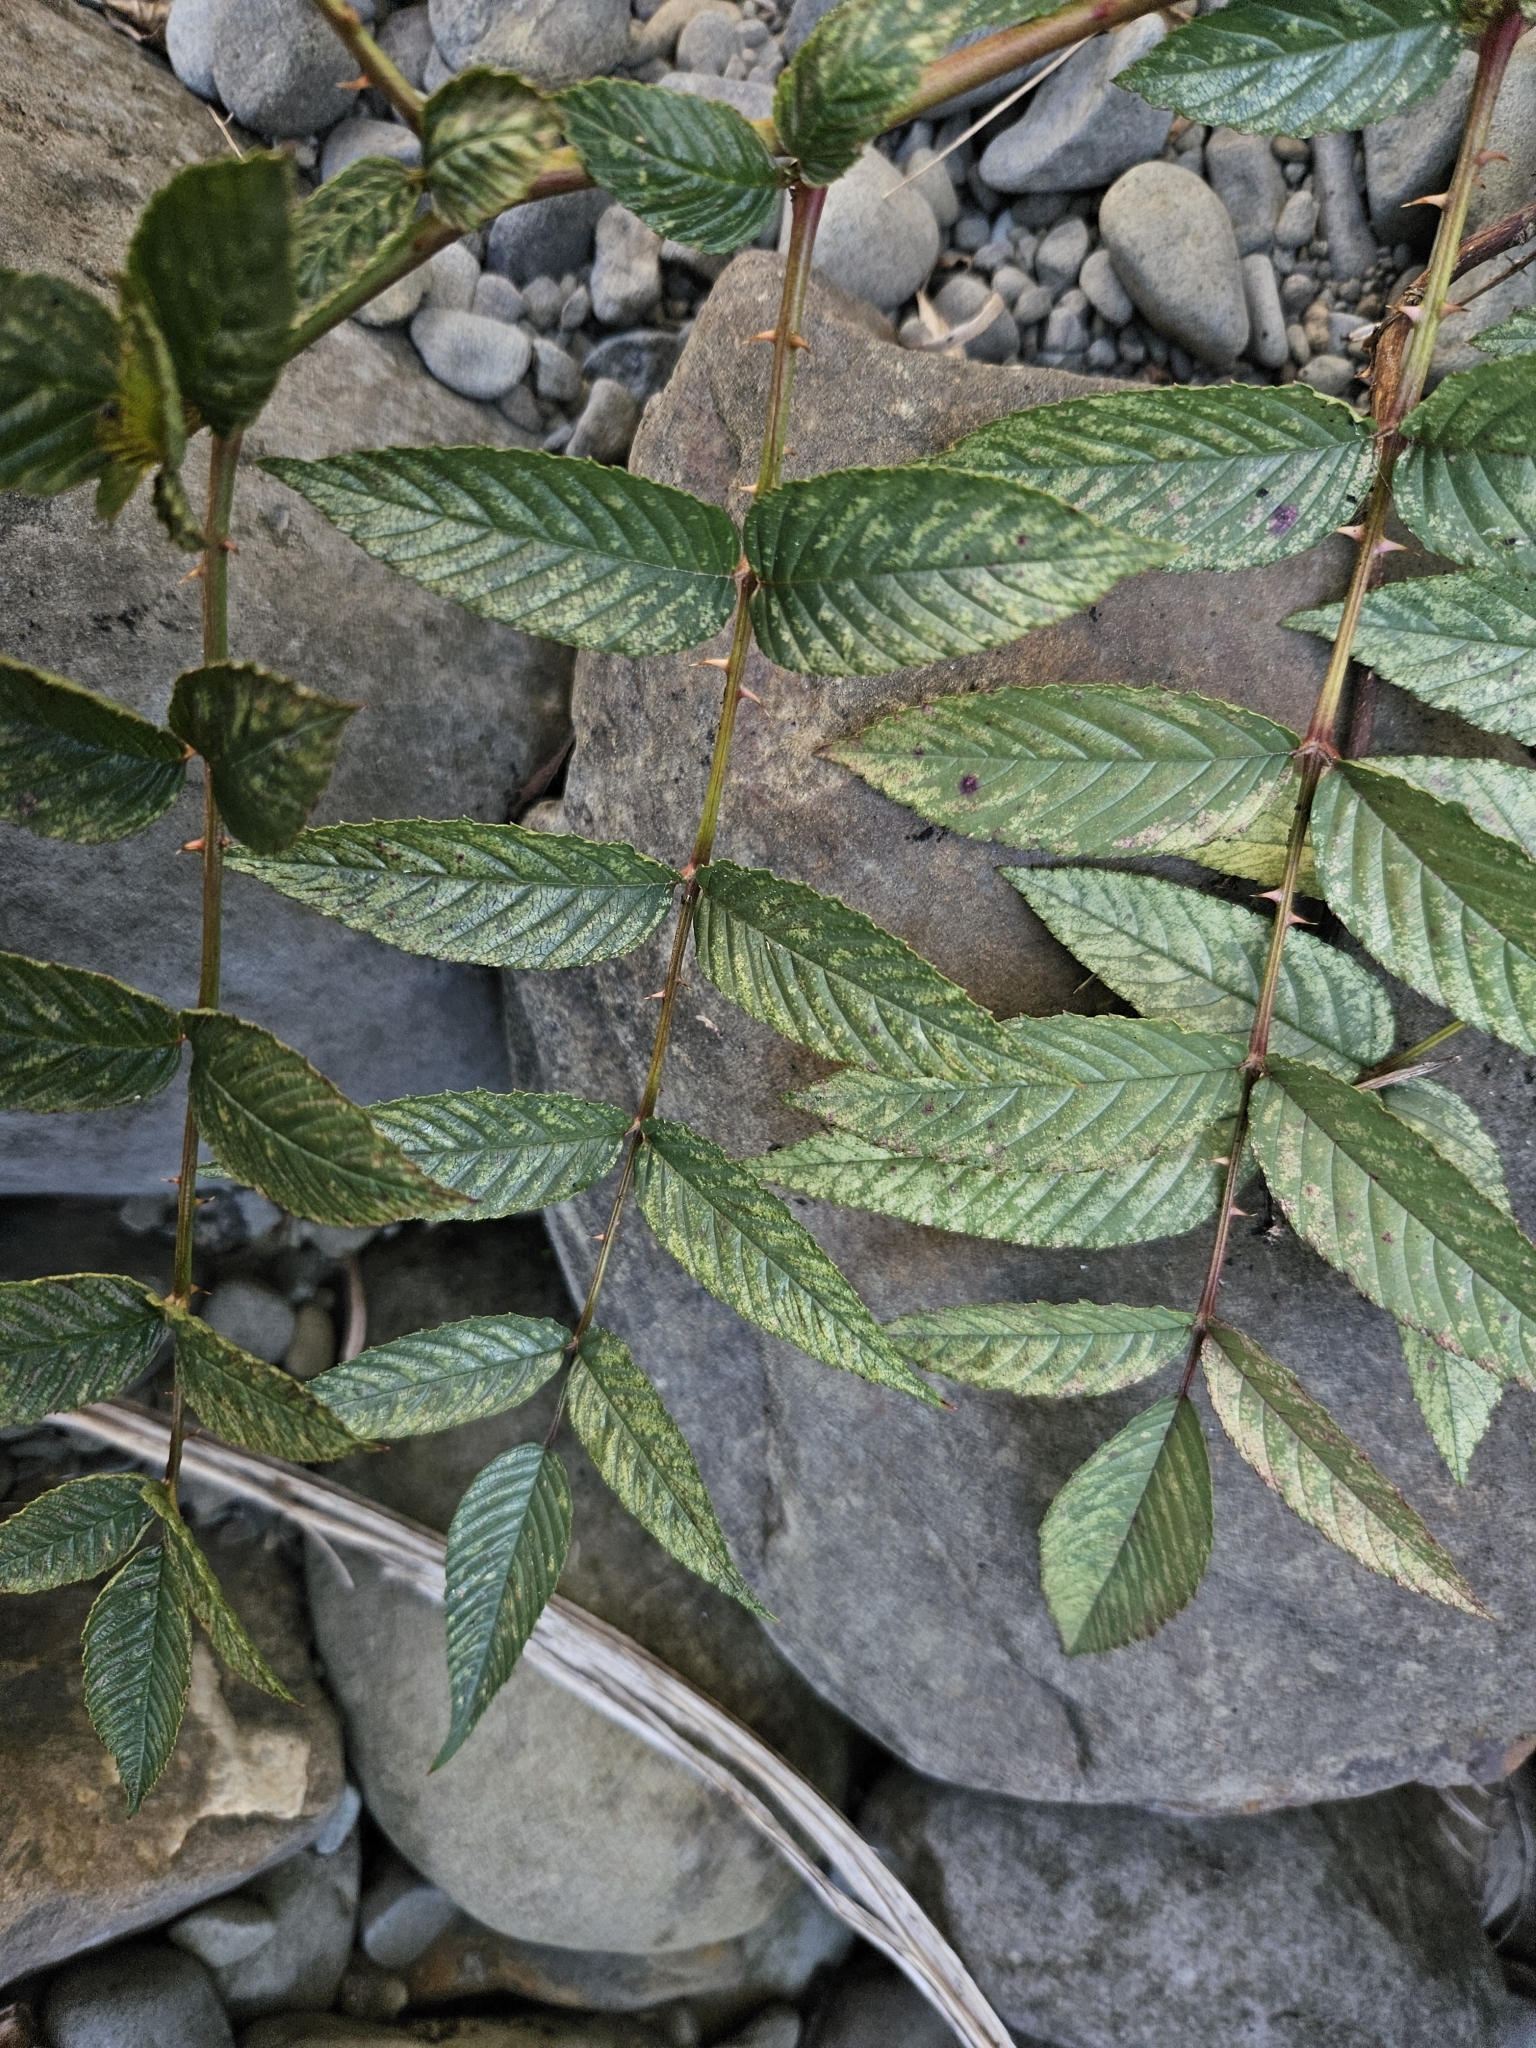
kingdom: Plantae
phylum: Tracheophyta
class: Magnoliopsida
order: Rosales
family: Rosaceae
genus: Rubus
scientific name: Rubus fraxinifolius
